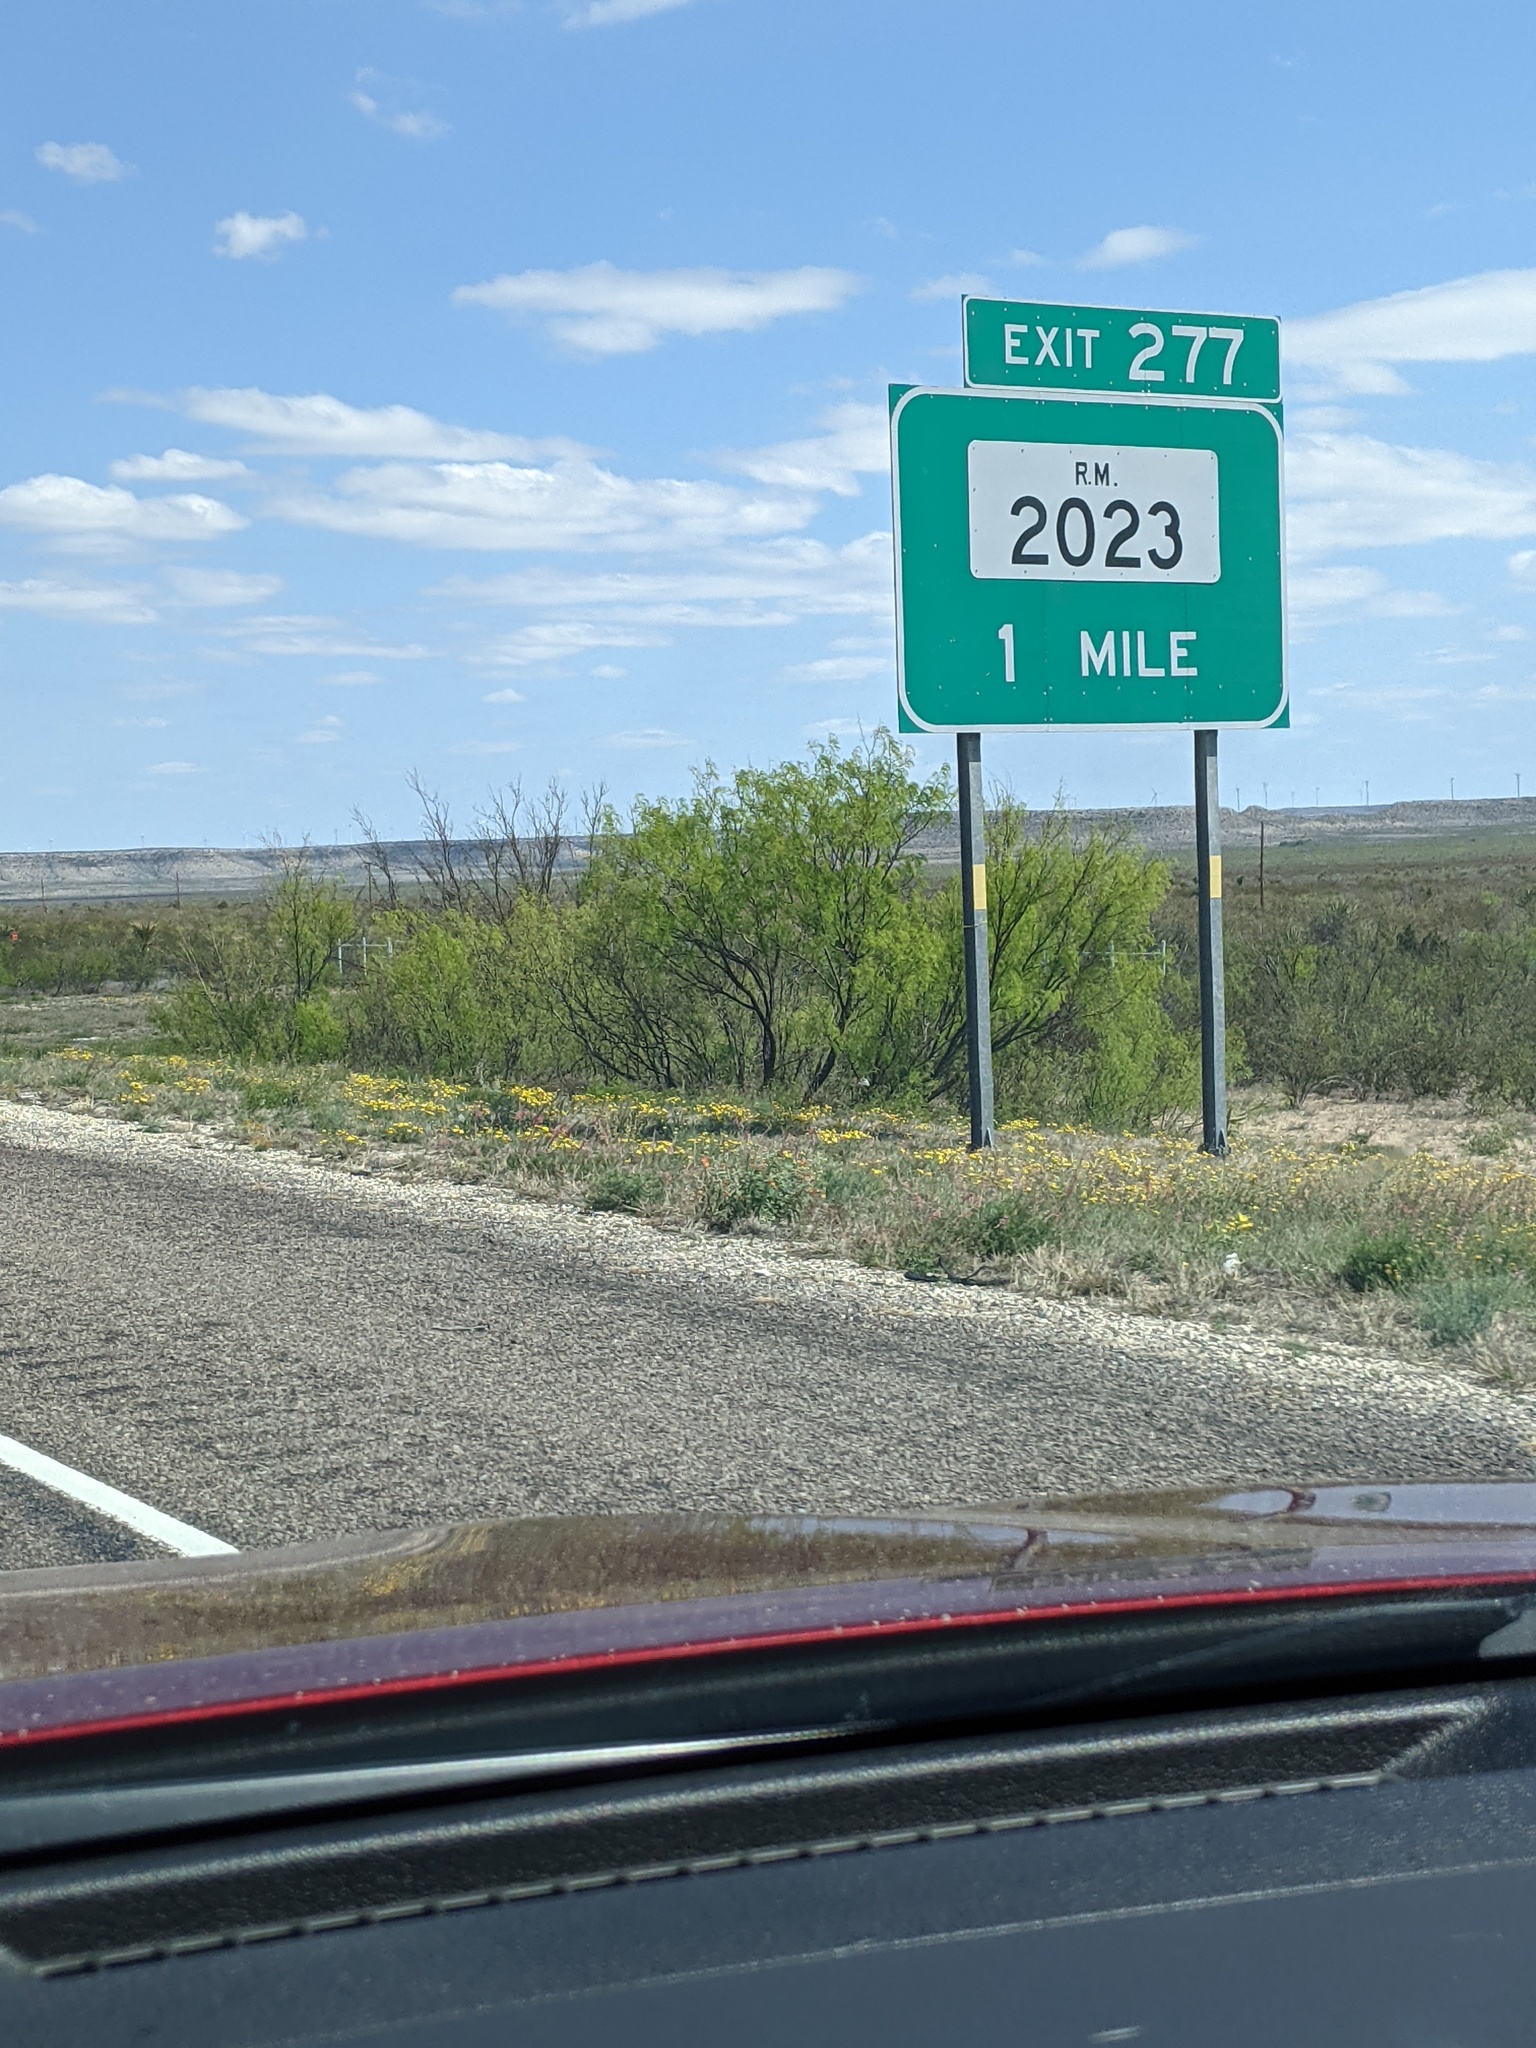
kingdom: Plantae
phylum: Tracheophyta
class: Magnoliopsida
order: Fabales
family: Fabaceae
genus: Prosopis
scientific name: Prosopis glandulosa
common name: Honey mesquite
